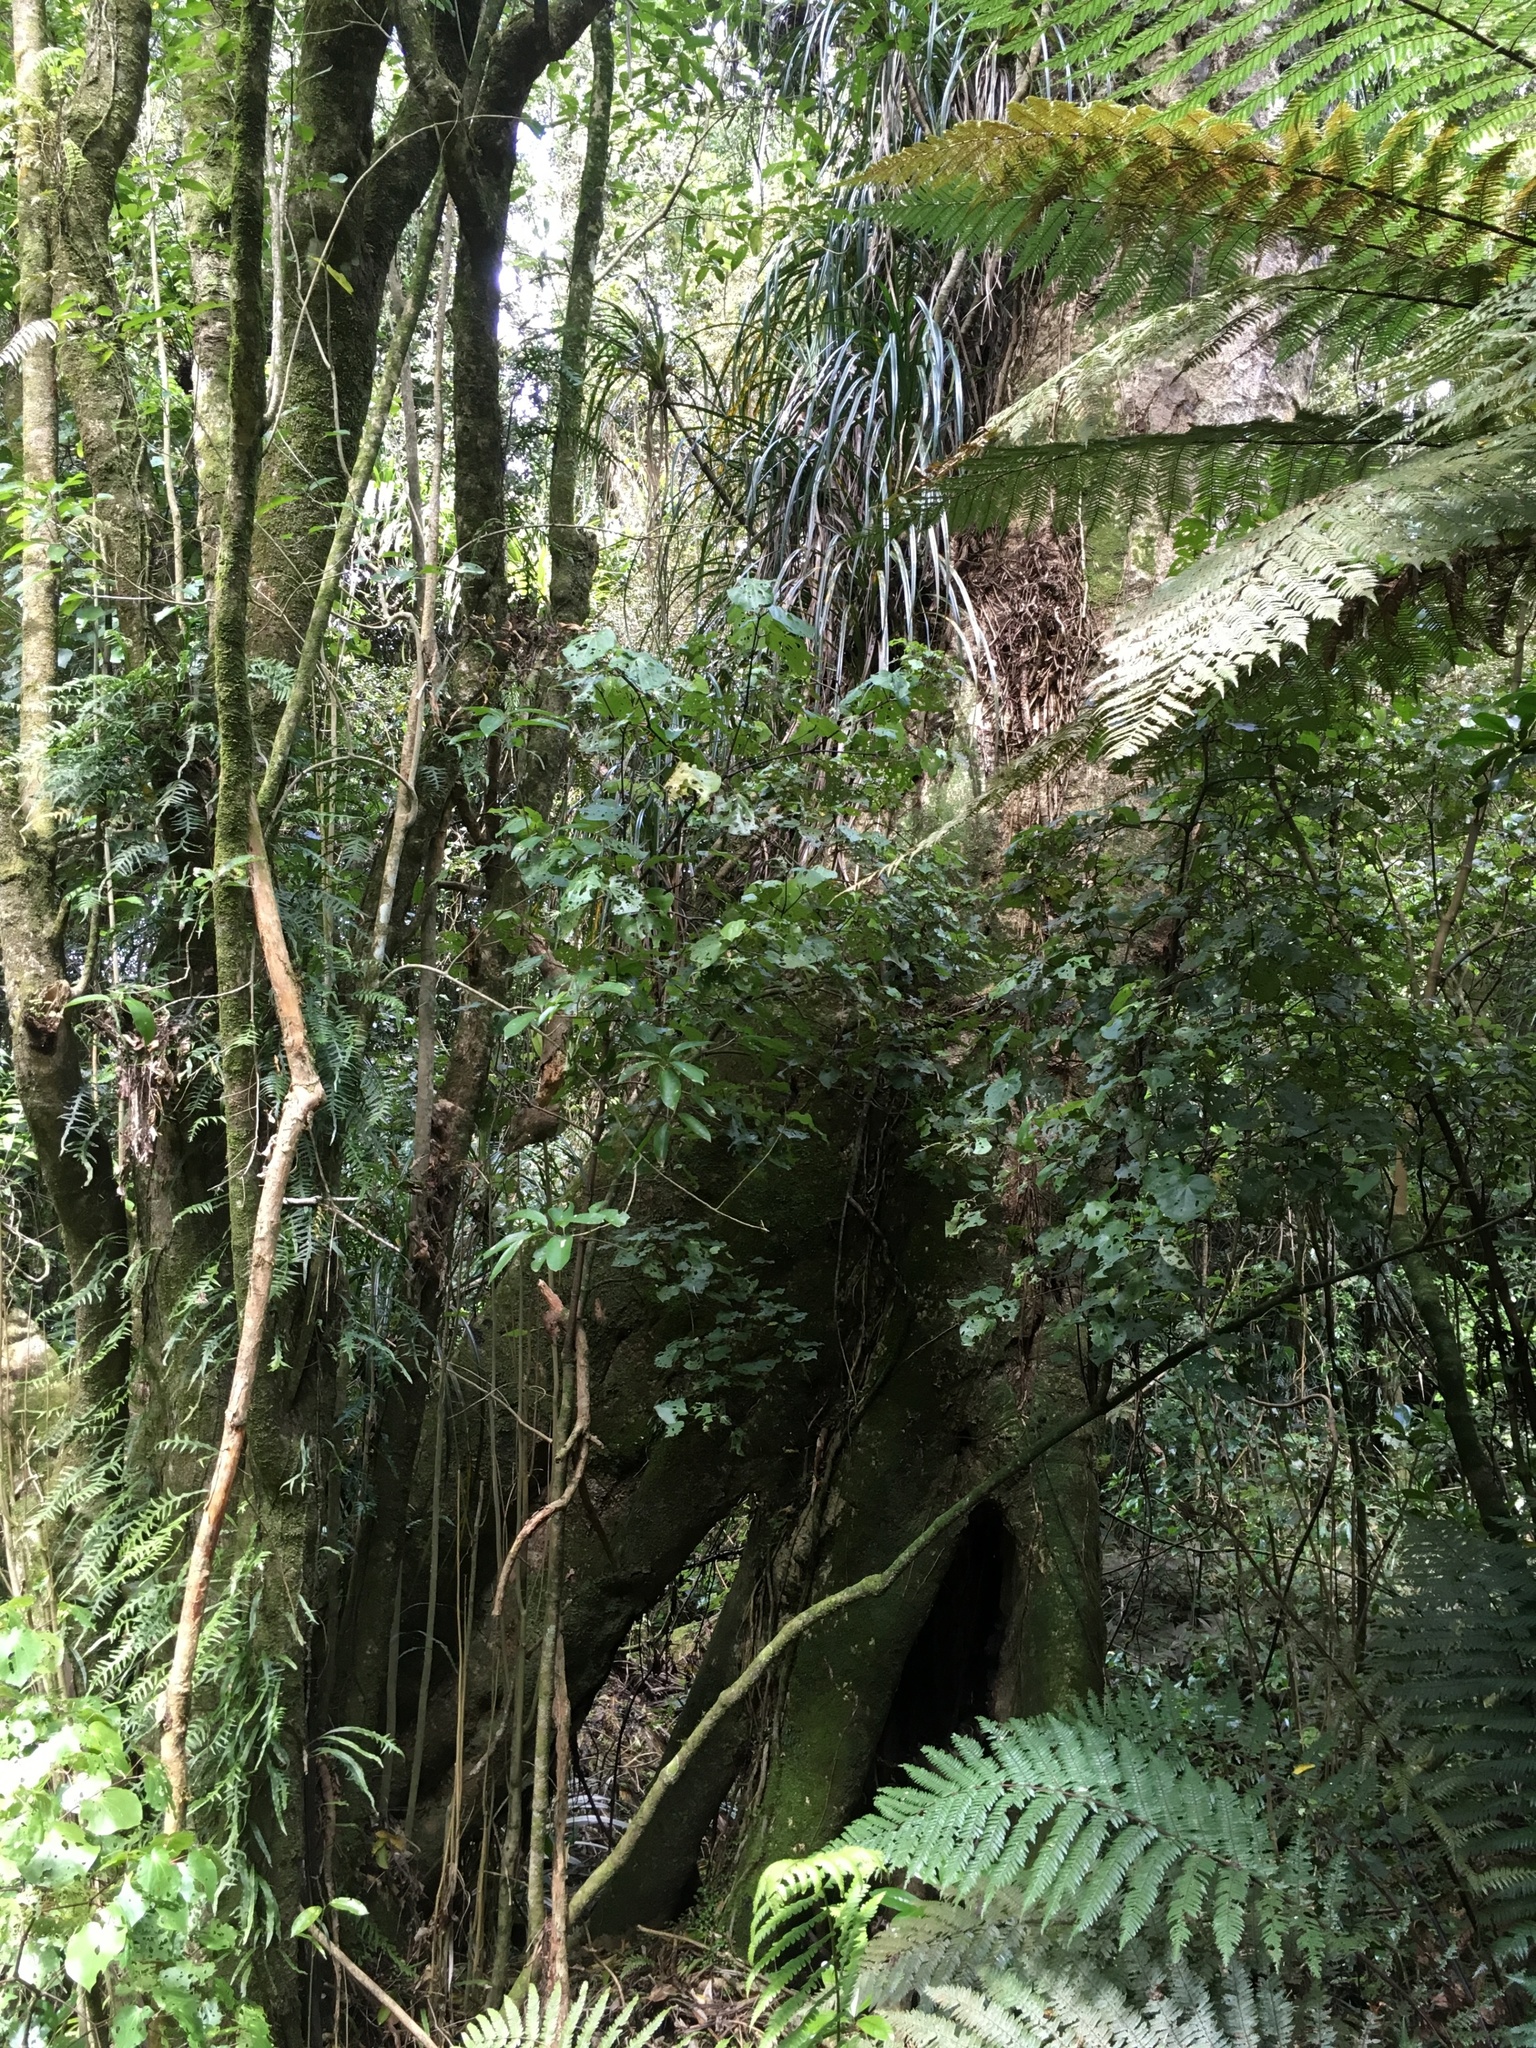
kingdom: Plantae
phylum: Tracheophyta
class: Magnoliopsida
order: Laurales
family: Atherospermataceae
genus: Laurelia
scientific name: Laurelia novae-zelandiae
